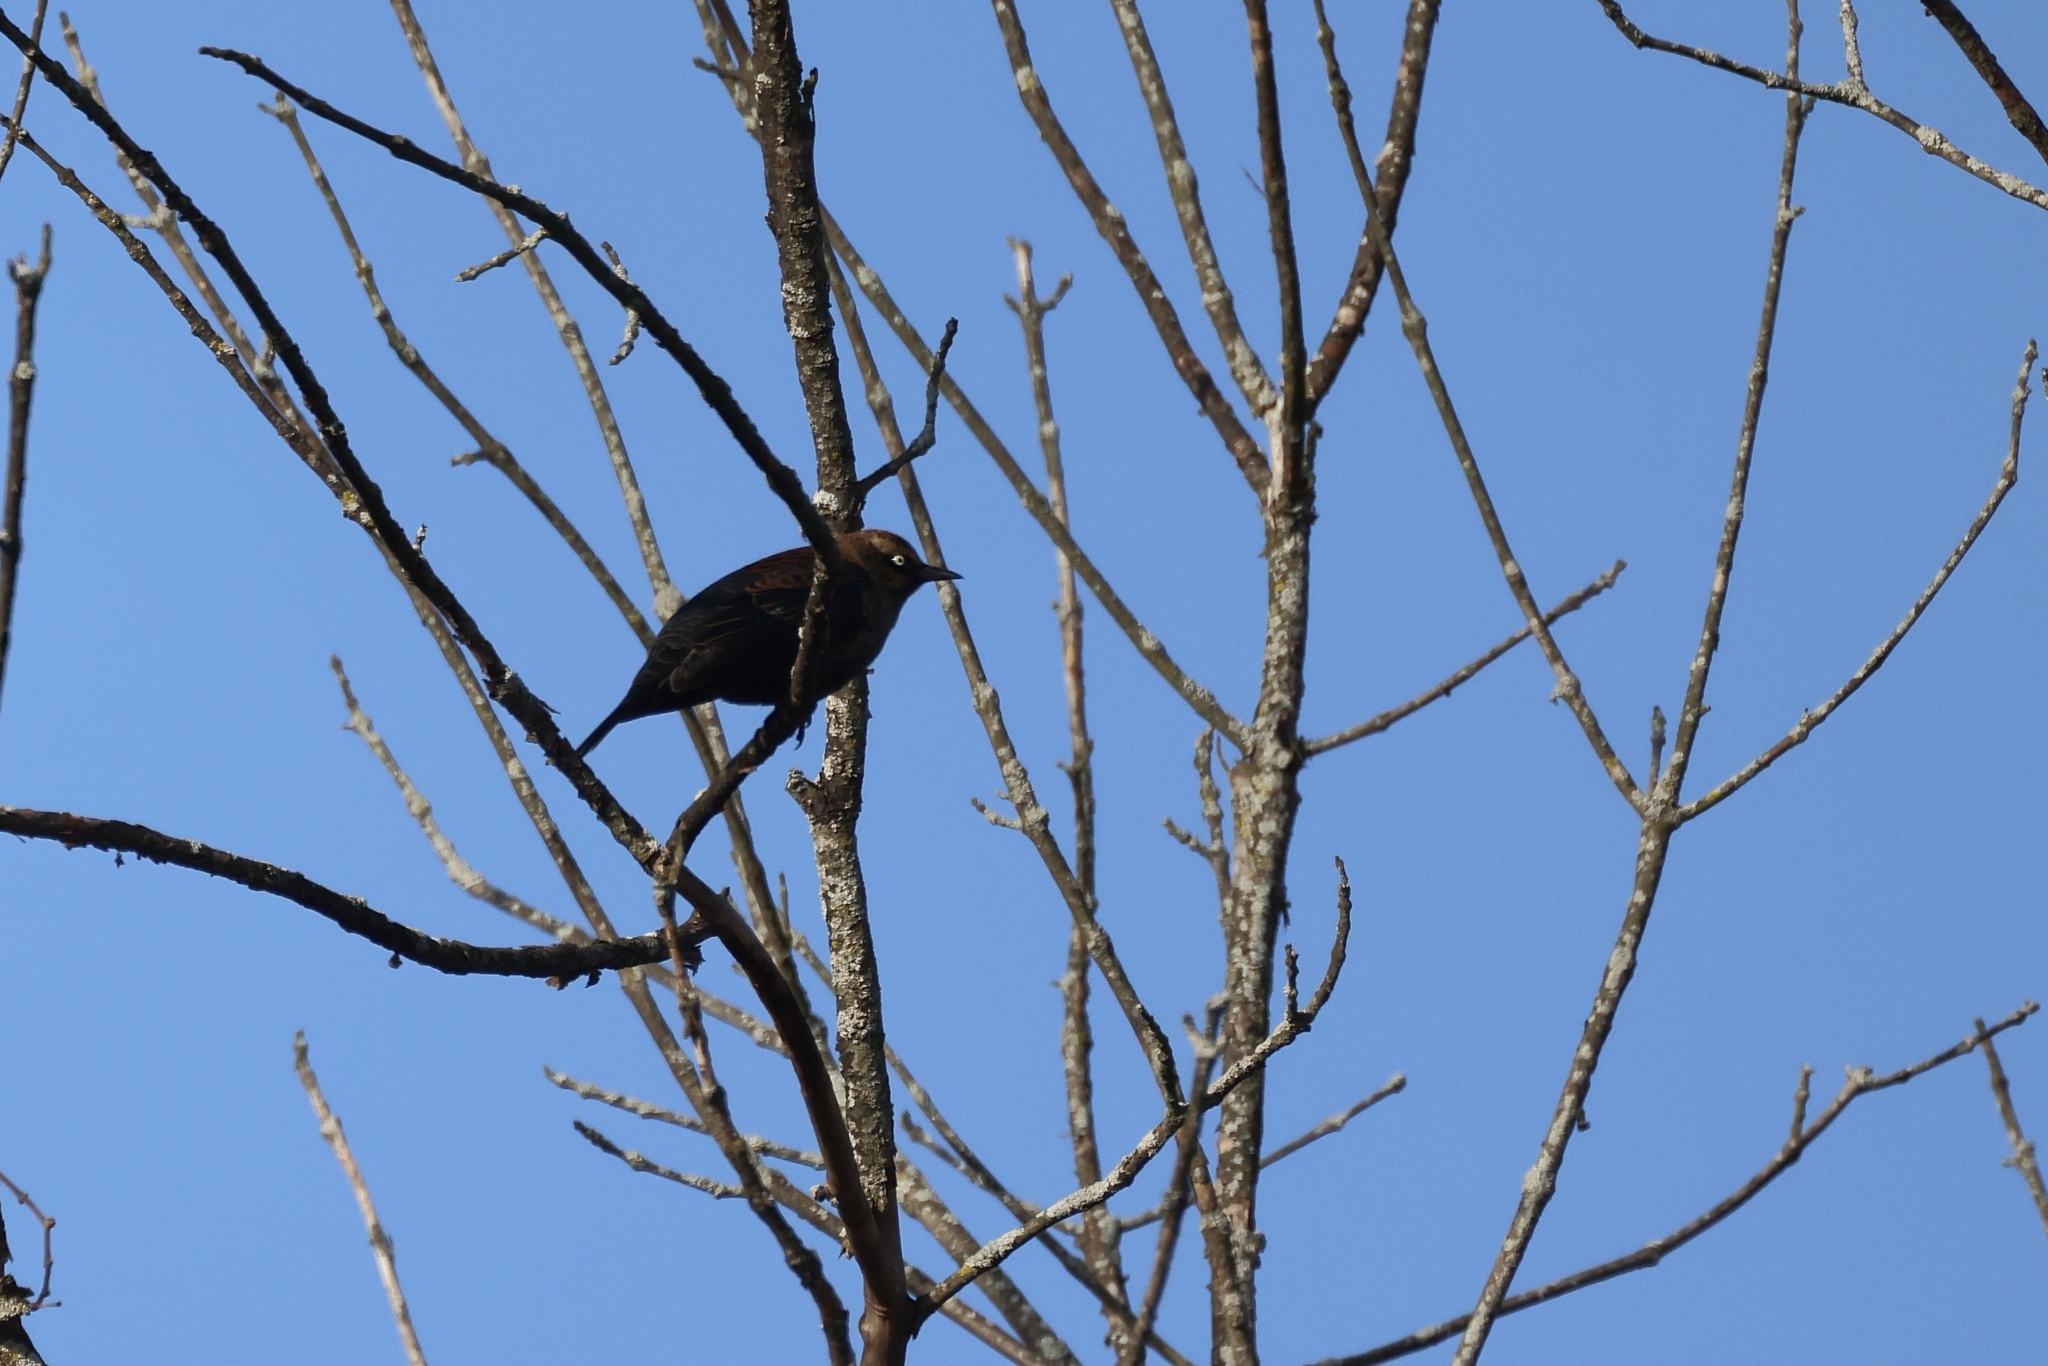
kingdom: Animalia
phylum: Chordata
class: Aves
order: Passeriformes
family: Icteridae
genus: Euphagus
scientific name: Euphagus carolinus
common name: Rusty blackbird
